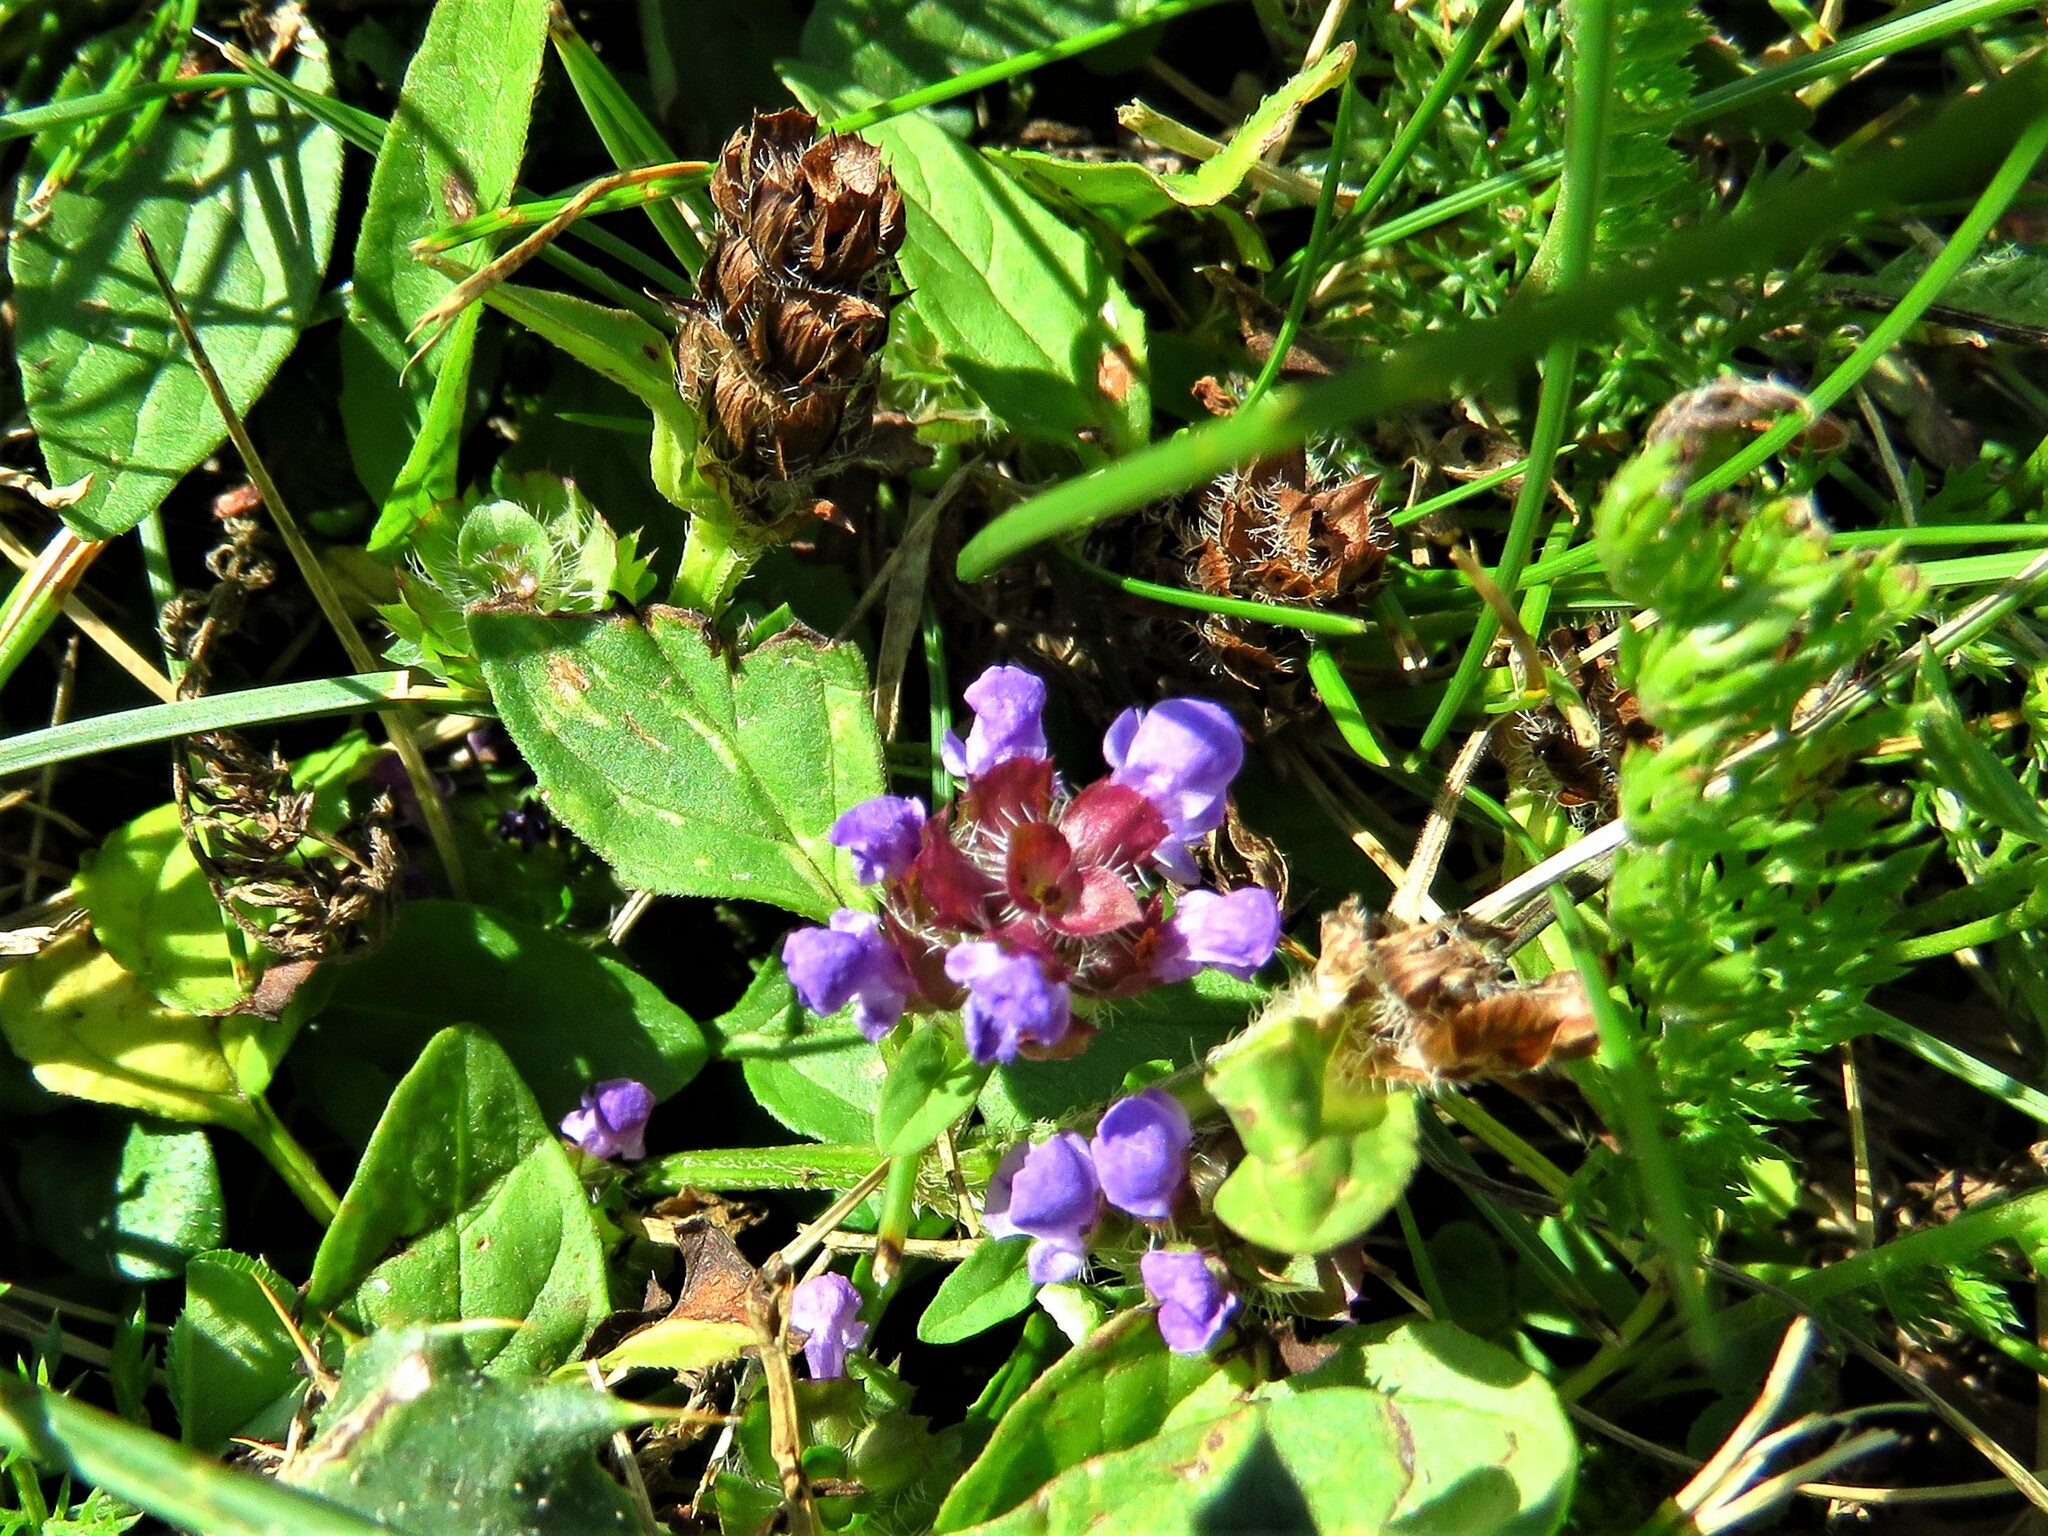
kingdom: Plantae
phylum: Tracheophyta
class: Magnoliopsida
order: Lamiales
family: Lamiaceae
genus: Prunella
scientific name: Prunella vulgaris
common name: Heal-all
